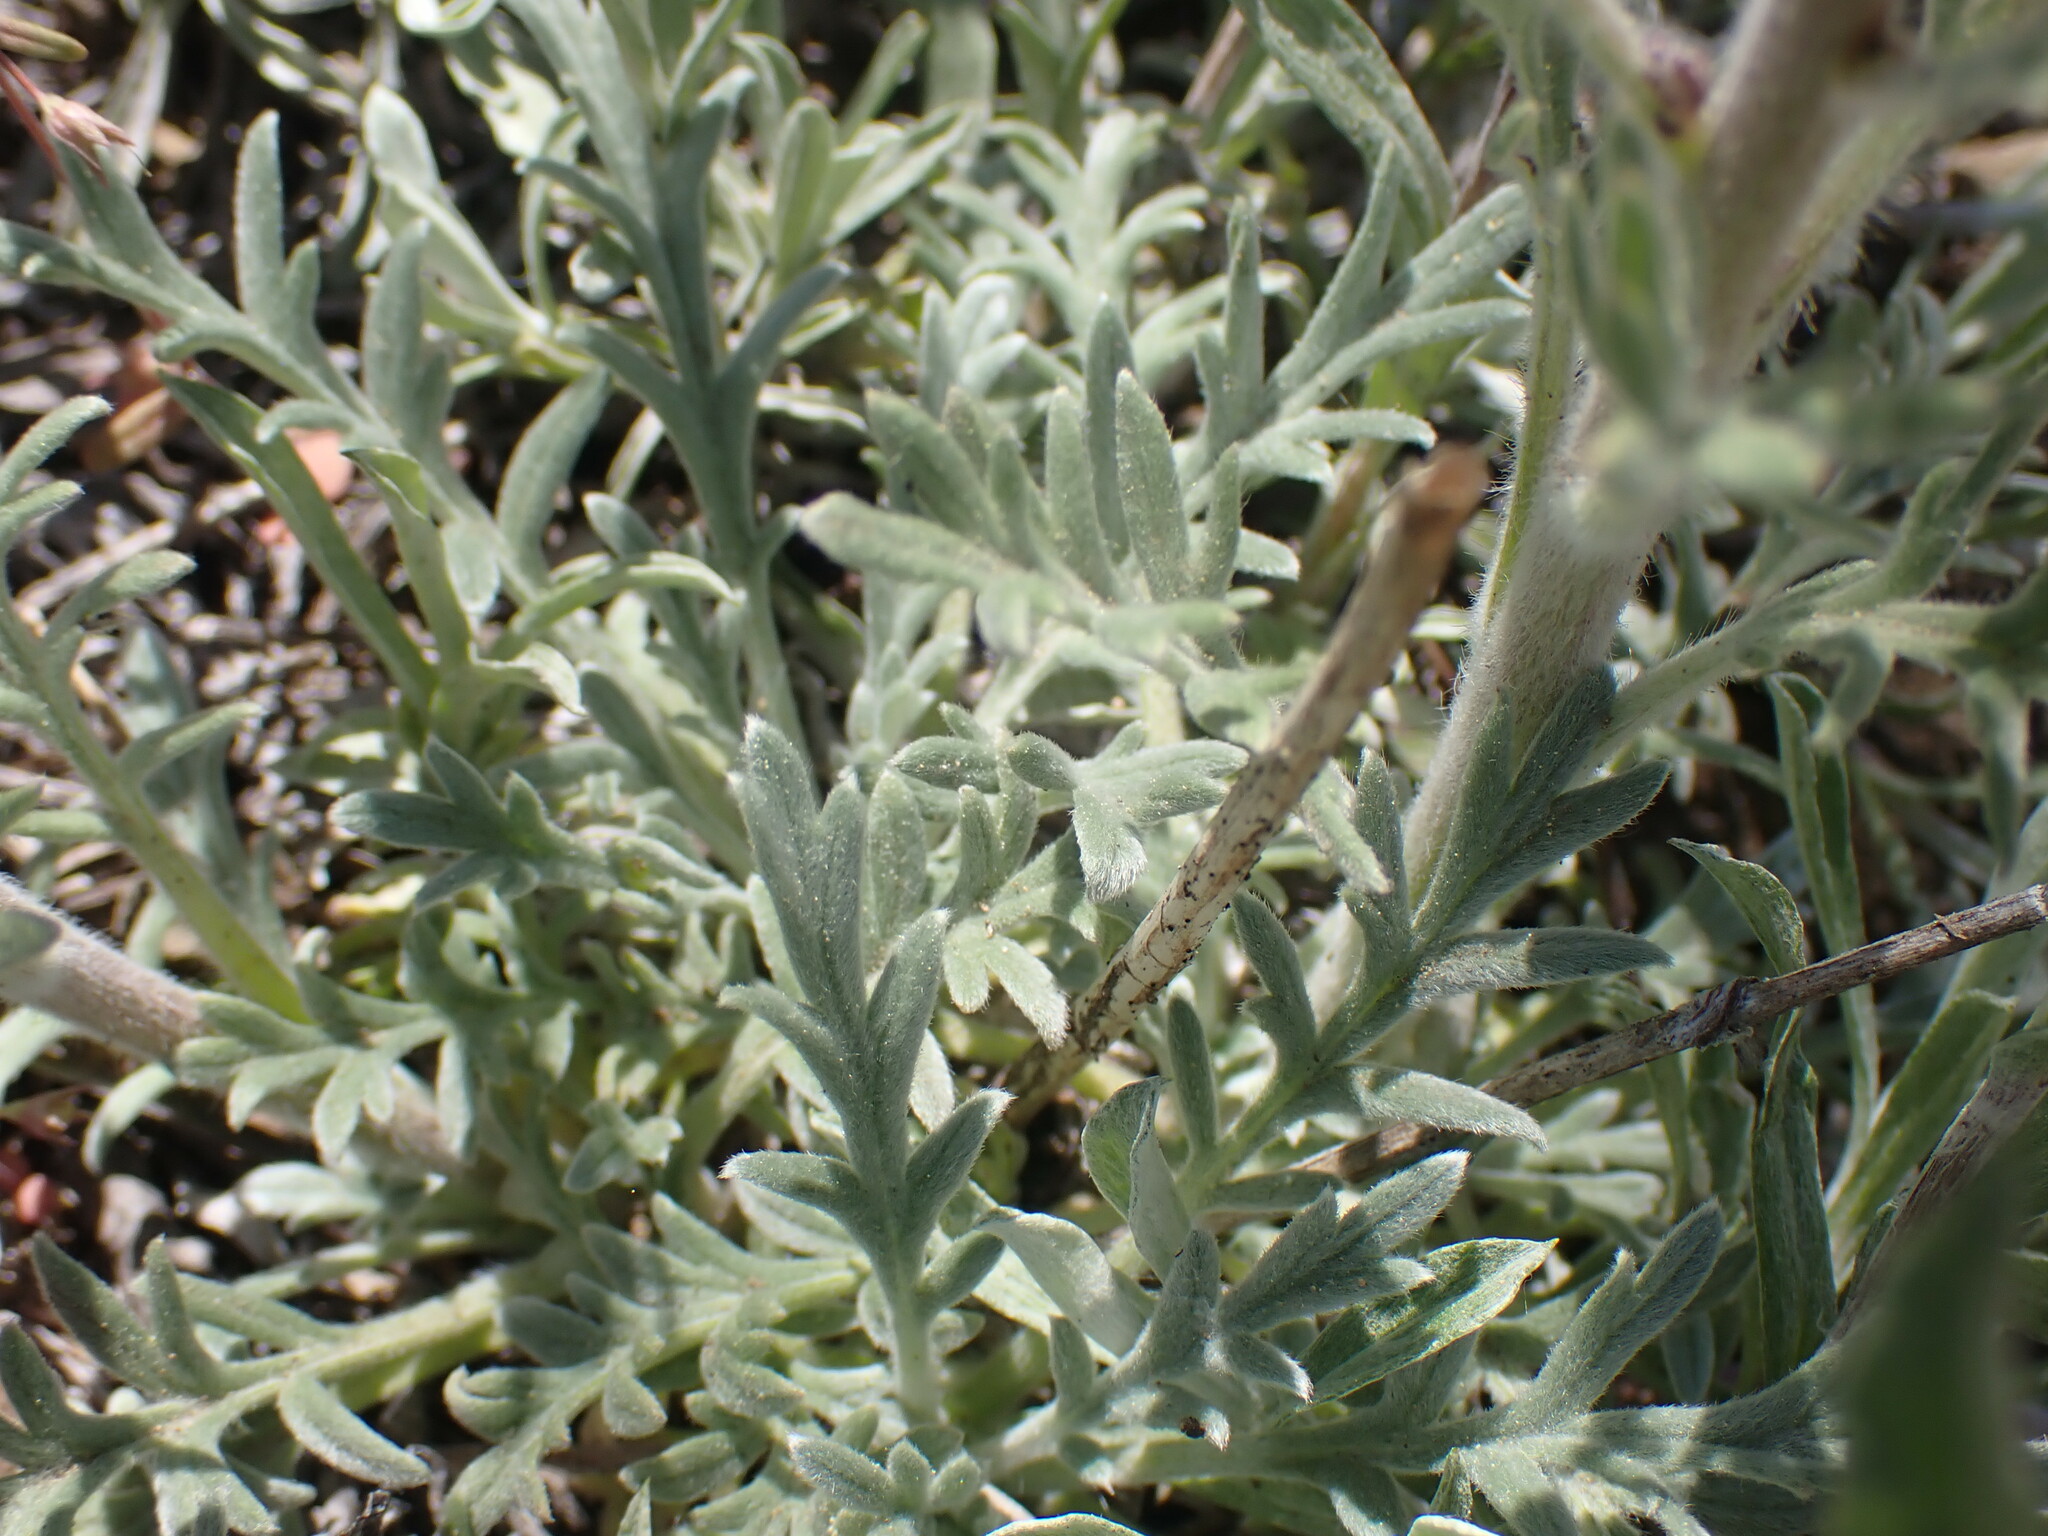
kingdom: Plantae
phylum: Tracheophyta
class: Magnoliopsida
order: Boraginales
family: Hydrophyllaceae
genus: Phacelia
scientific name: Phacelia sericea
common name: Silky phacelia
